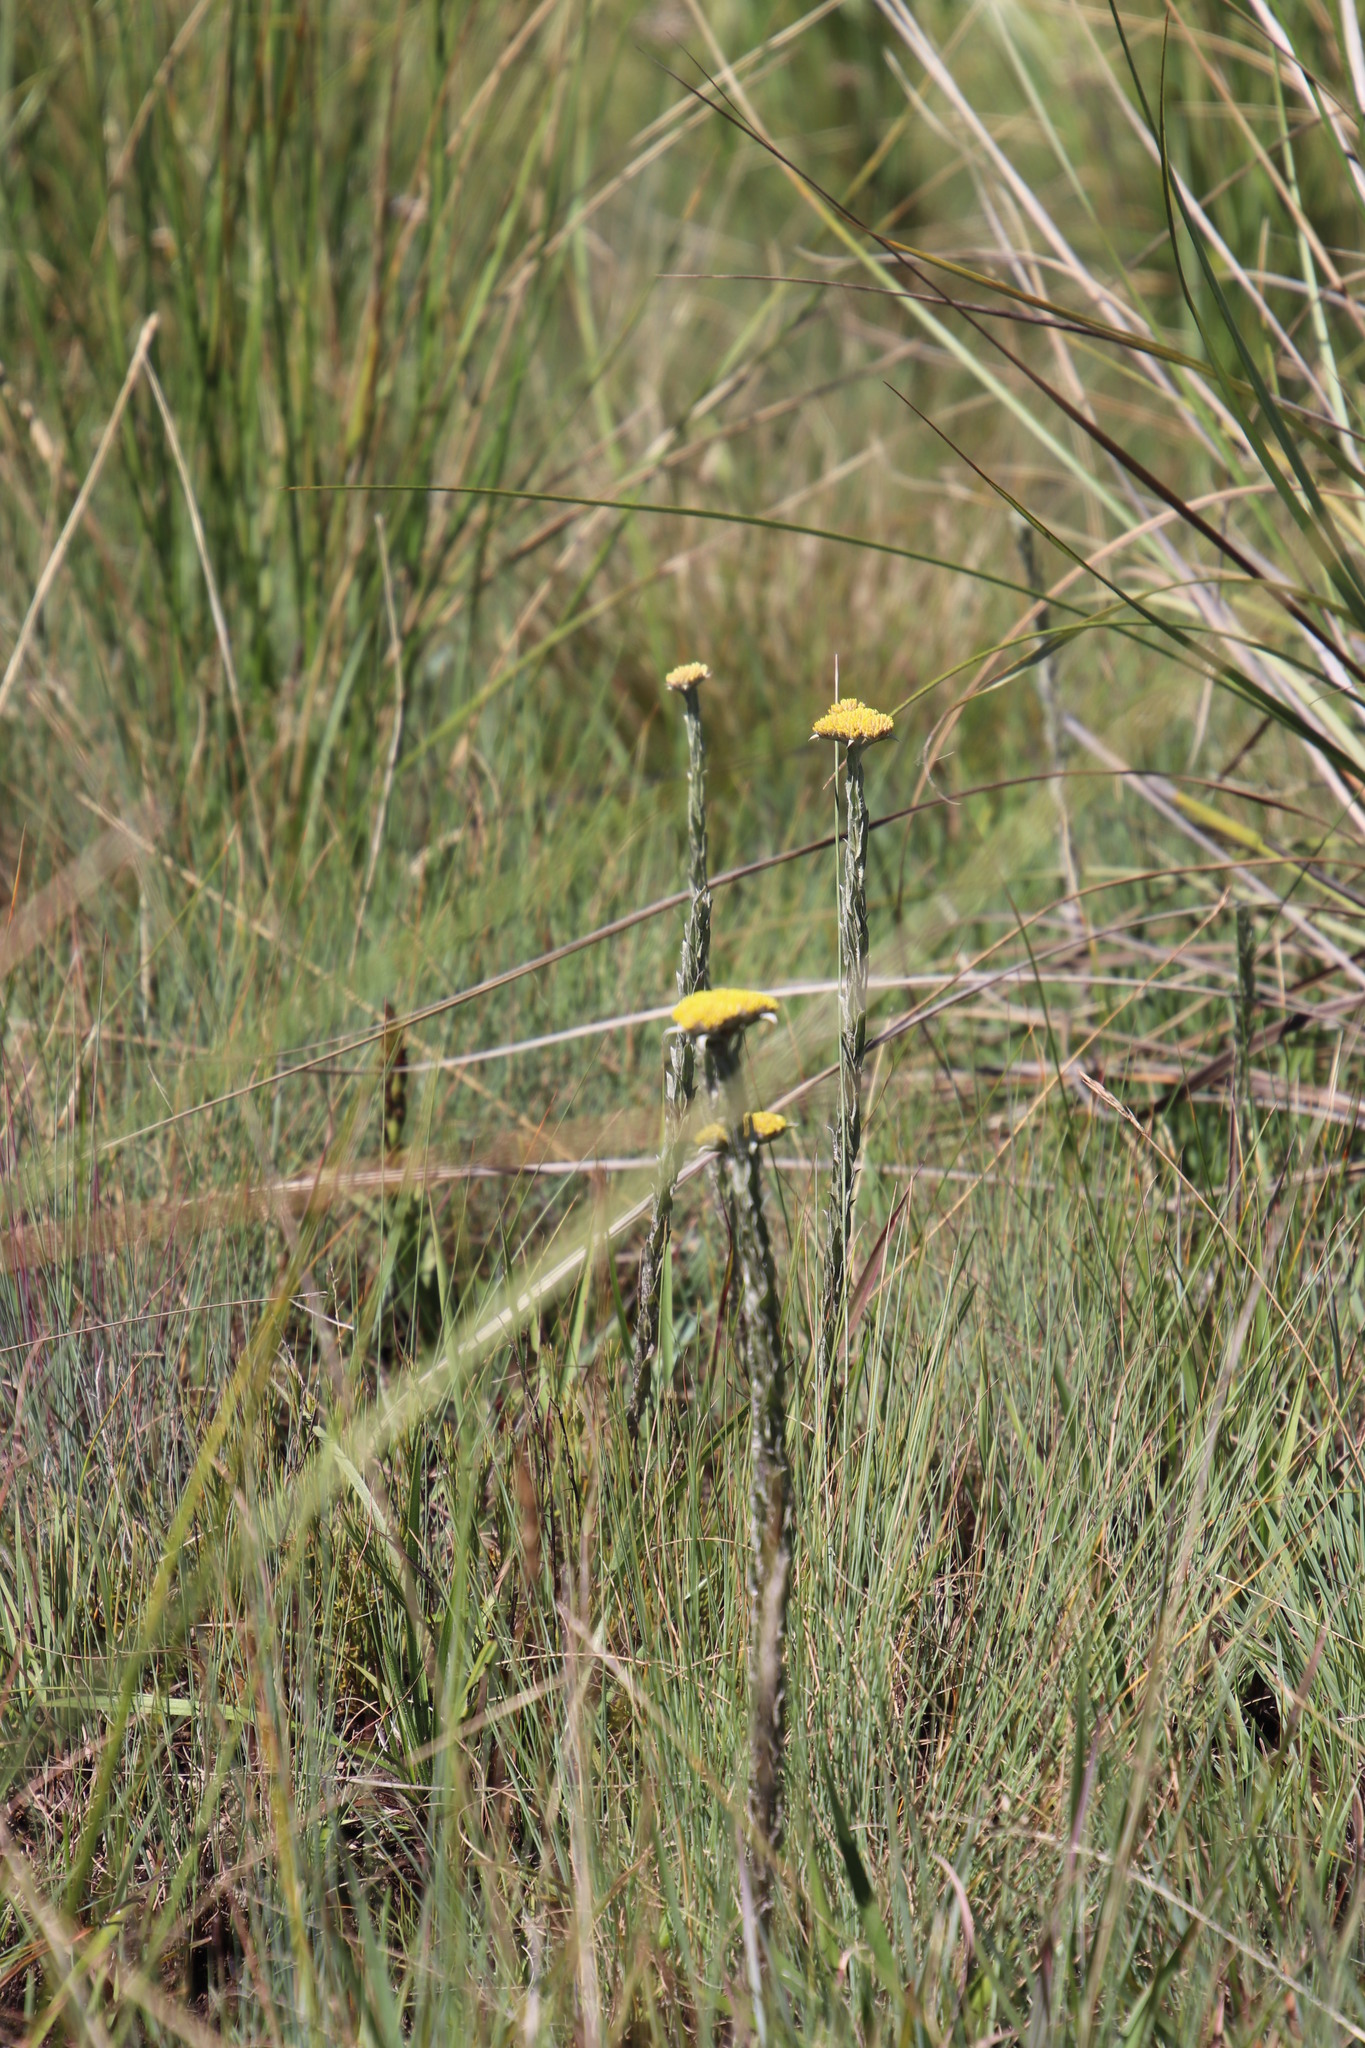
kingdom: Plantae
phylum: Tracheophyta
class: Magnoliopsida
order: Asterales
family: Asteraceae
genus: Helichrysum
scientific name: Helichrysum glomeratum
